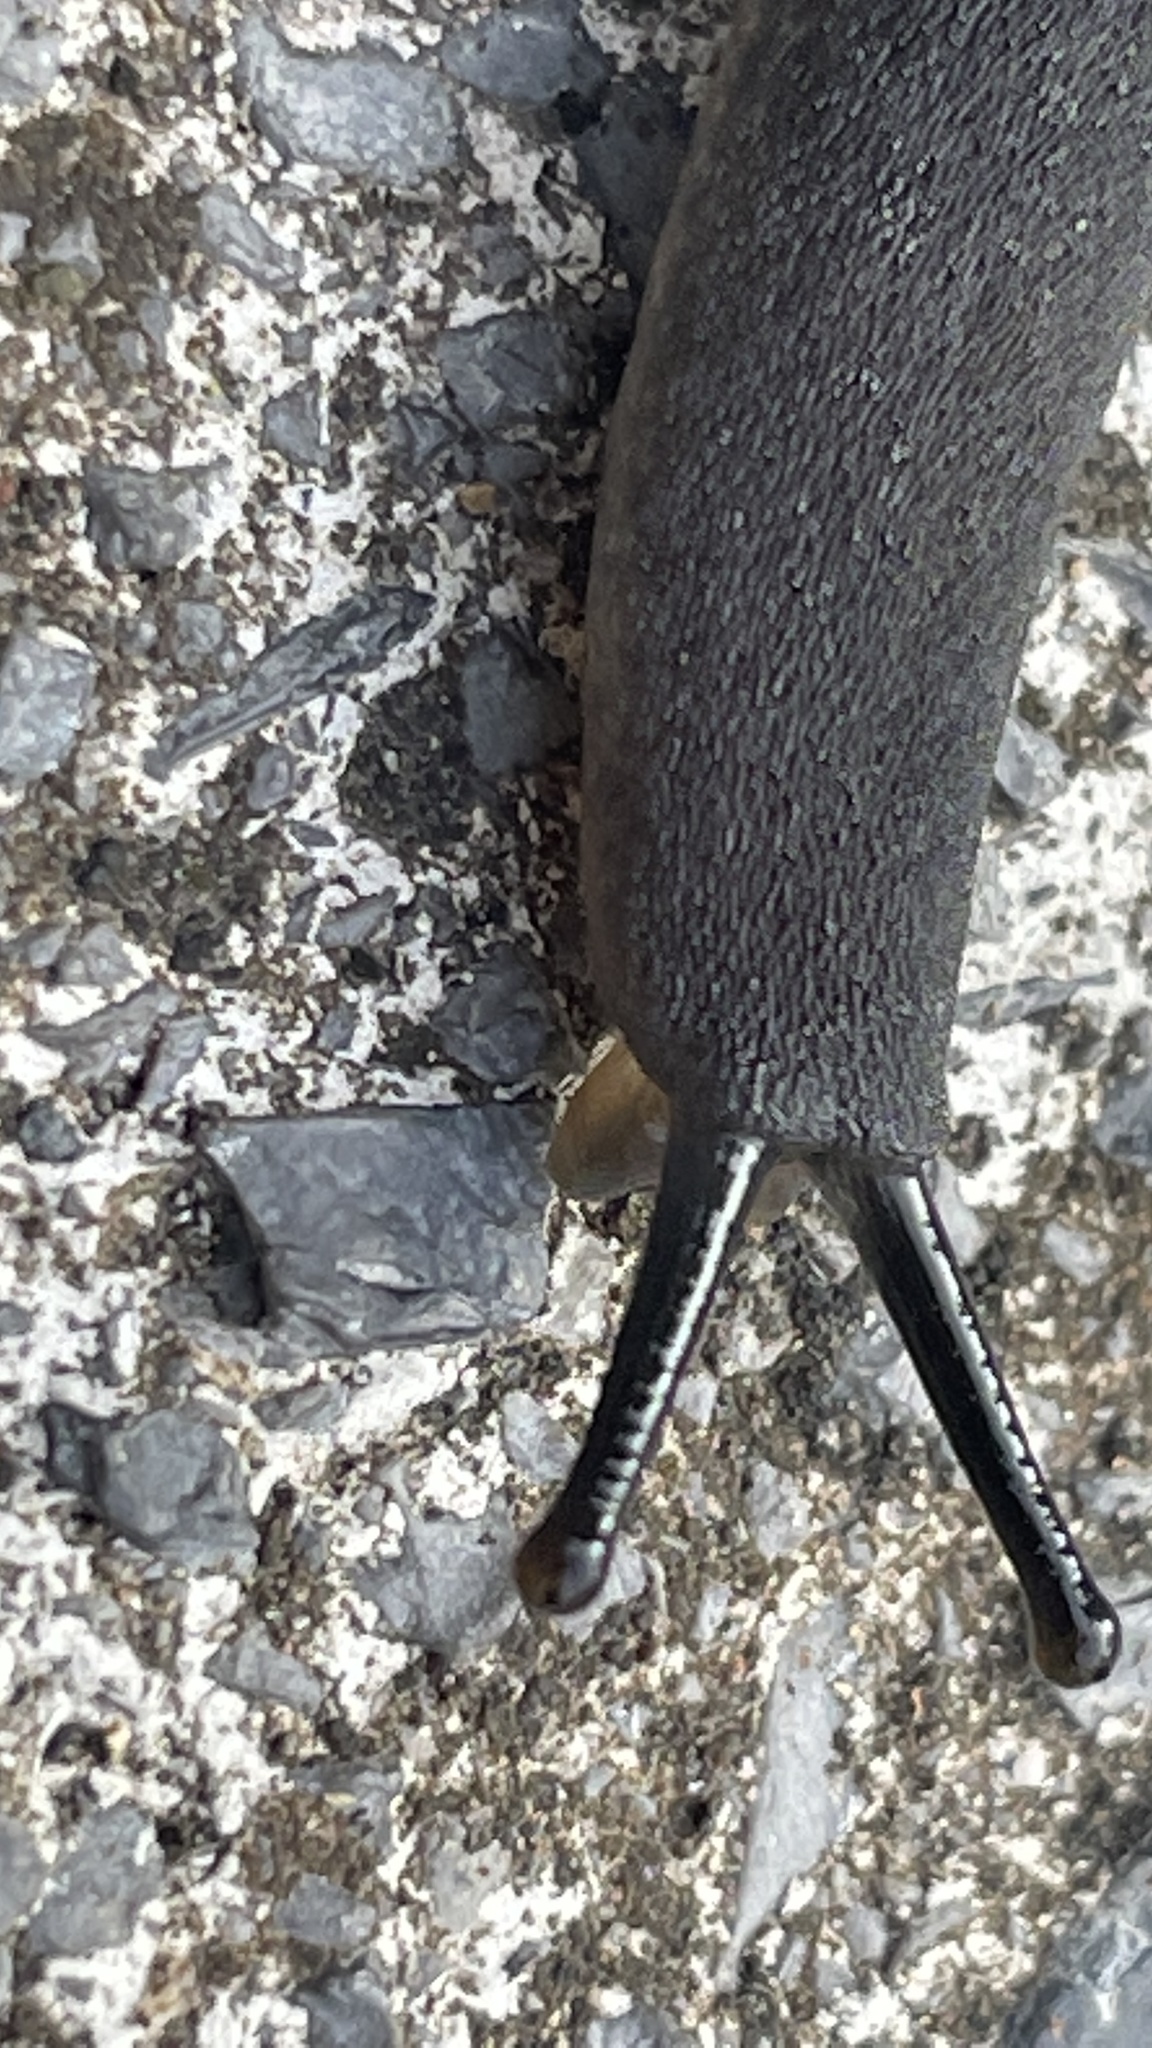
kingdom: Animalia
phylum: Mollusca
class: Gastropoda
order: Systellommatophora
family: Veronicellidae
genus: Belocaulus
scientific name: Belocaulus angustipes
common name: Black velvet leatherleaf slug
